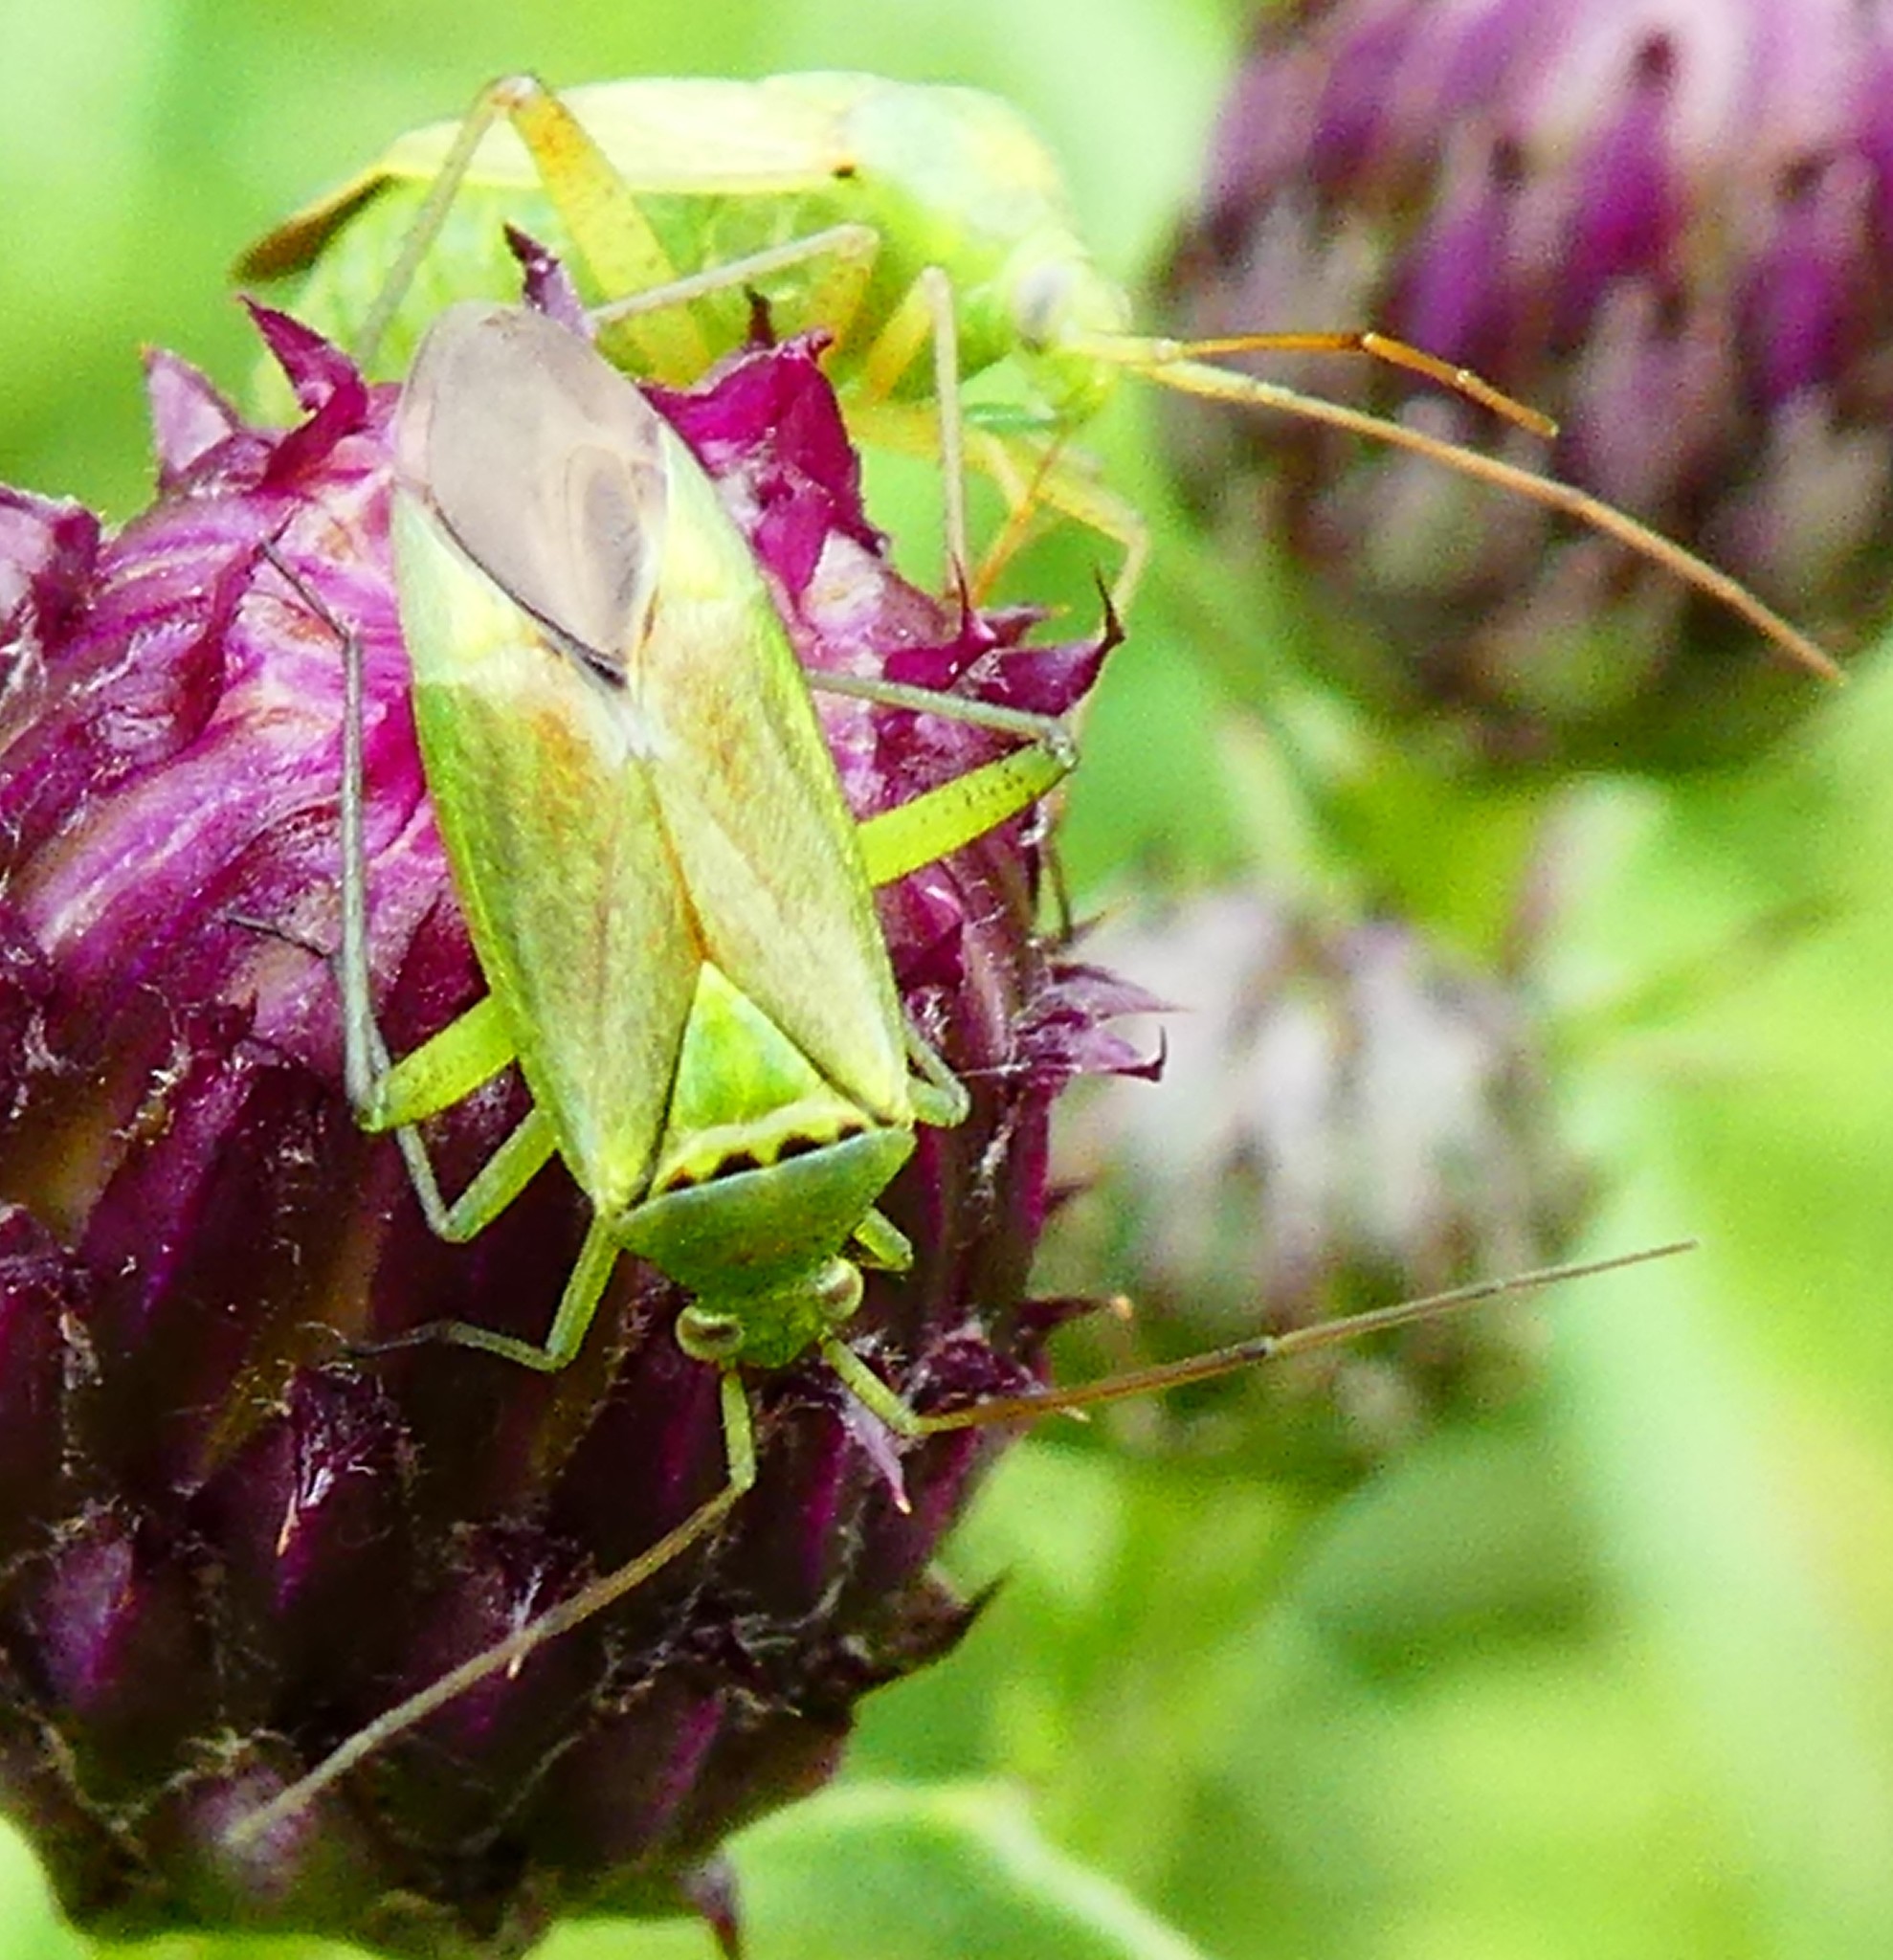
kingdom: Animalia
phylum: Arthropoda
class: Insecta
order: Hemiptera
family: Miridae
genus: Closterotomus
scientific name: Closterotomus norvegicus
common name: Plant bug
